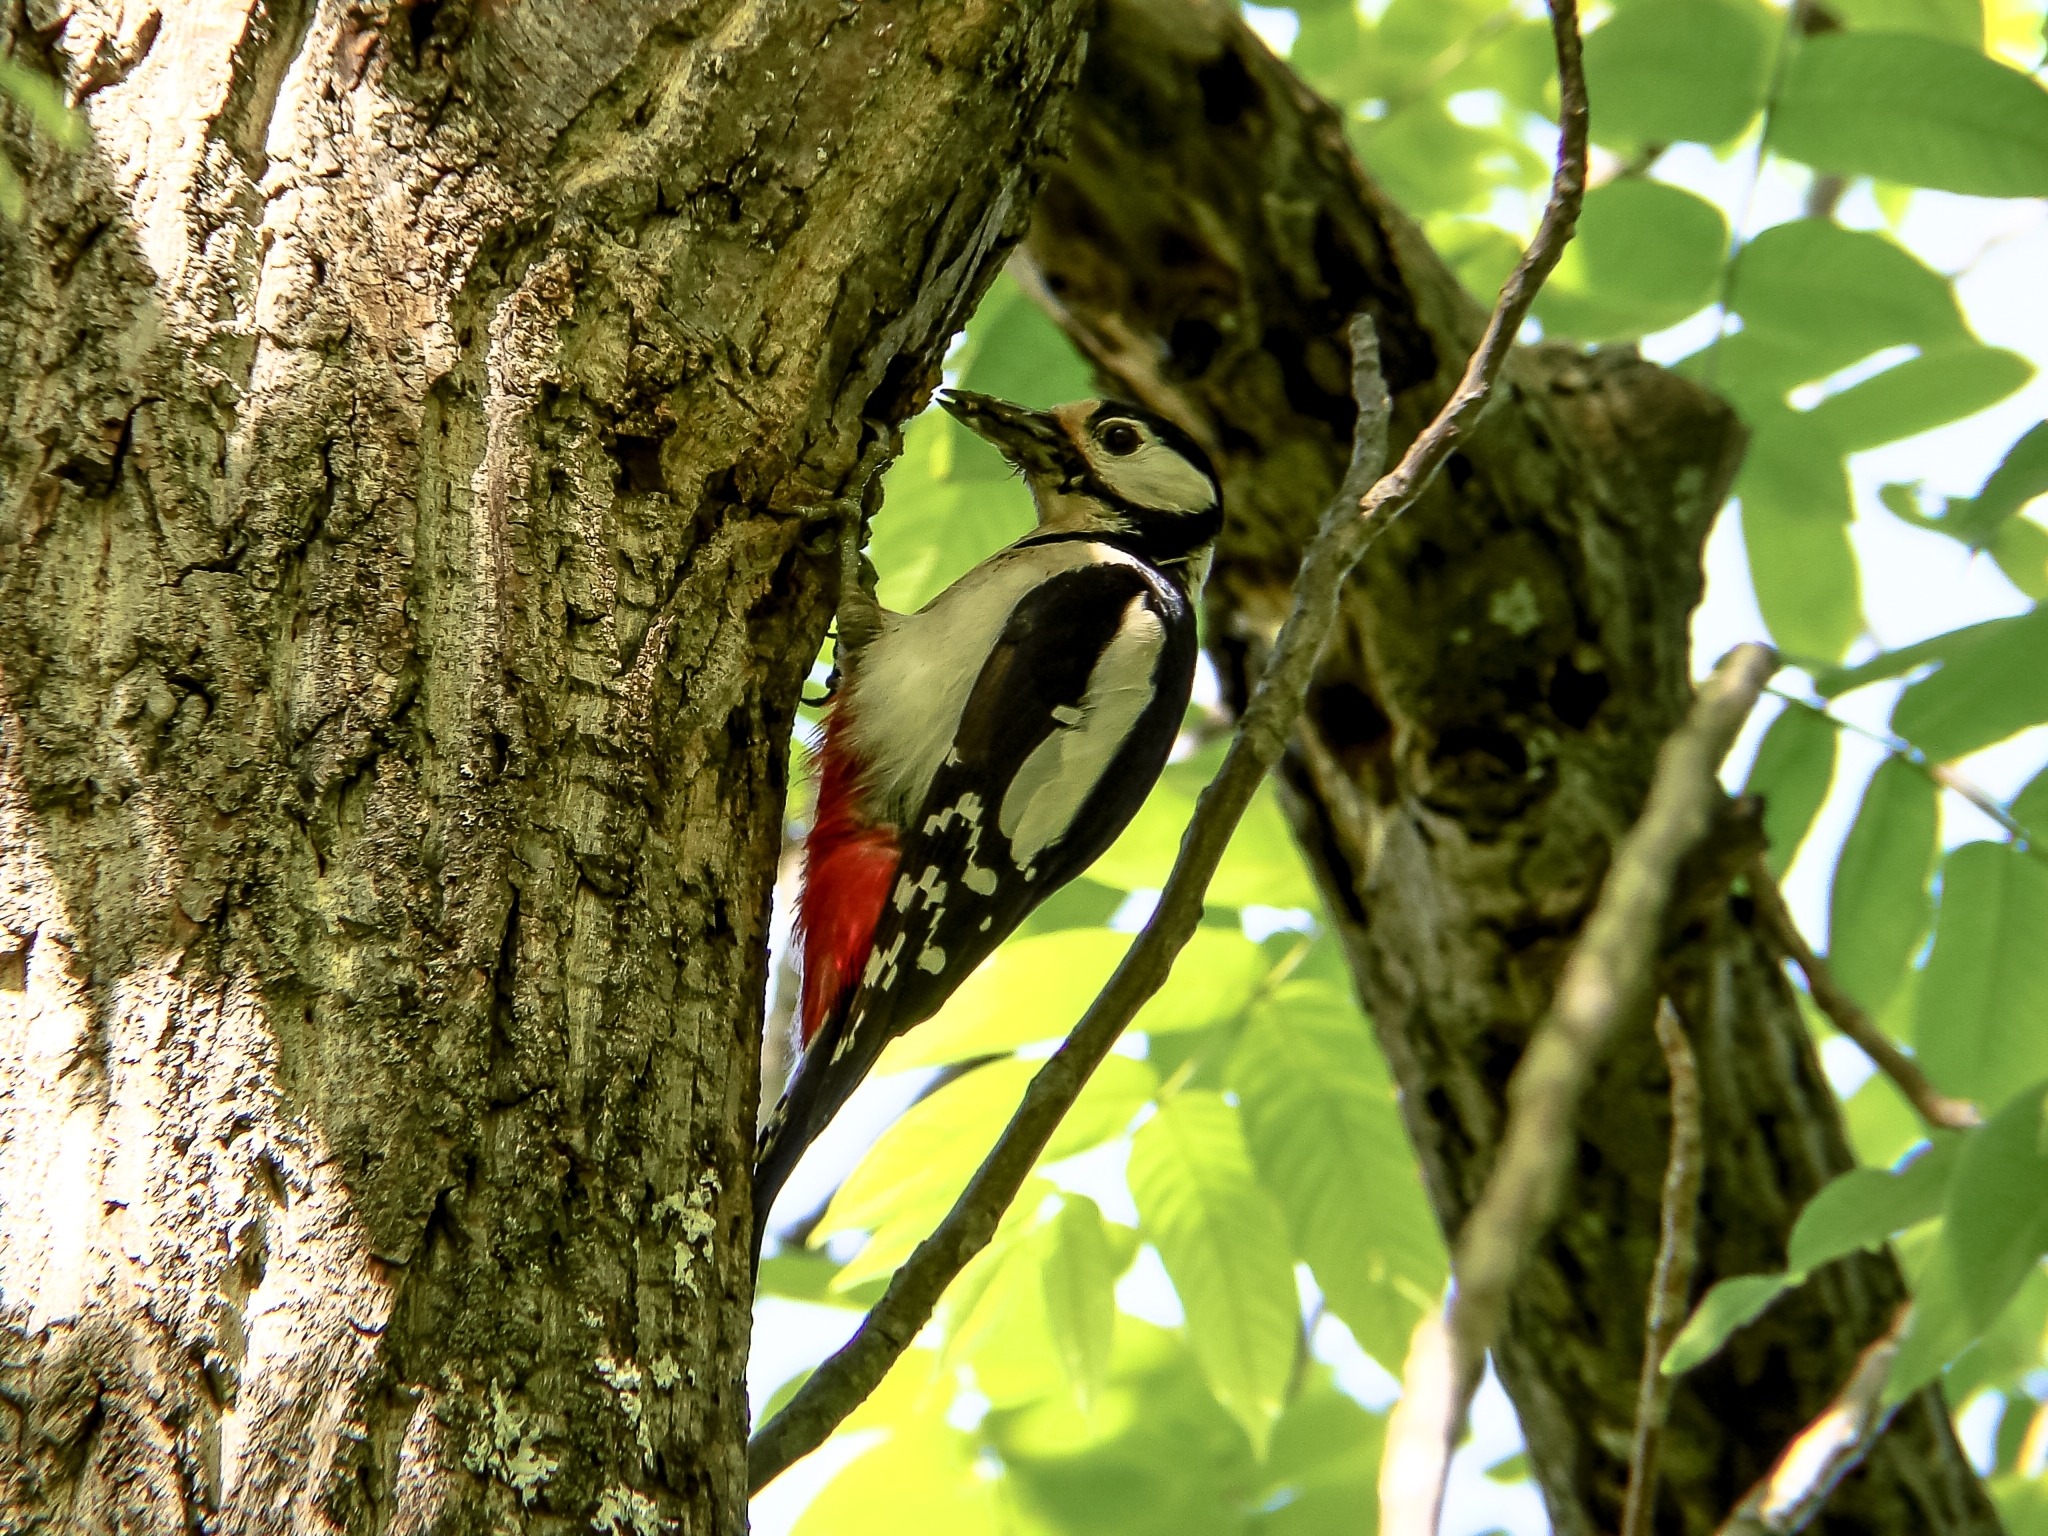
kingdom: Animalia
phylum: Chordata
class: Aves
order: Piciformes
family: Picidae
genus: Dendrocopos
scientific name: Dendrocopos major
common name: Great spotted woodpecker
